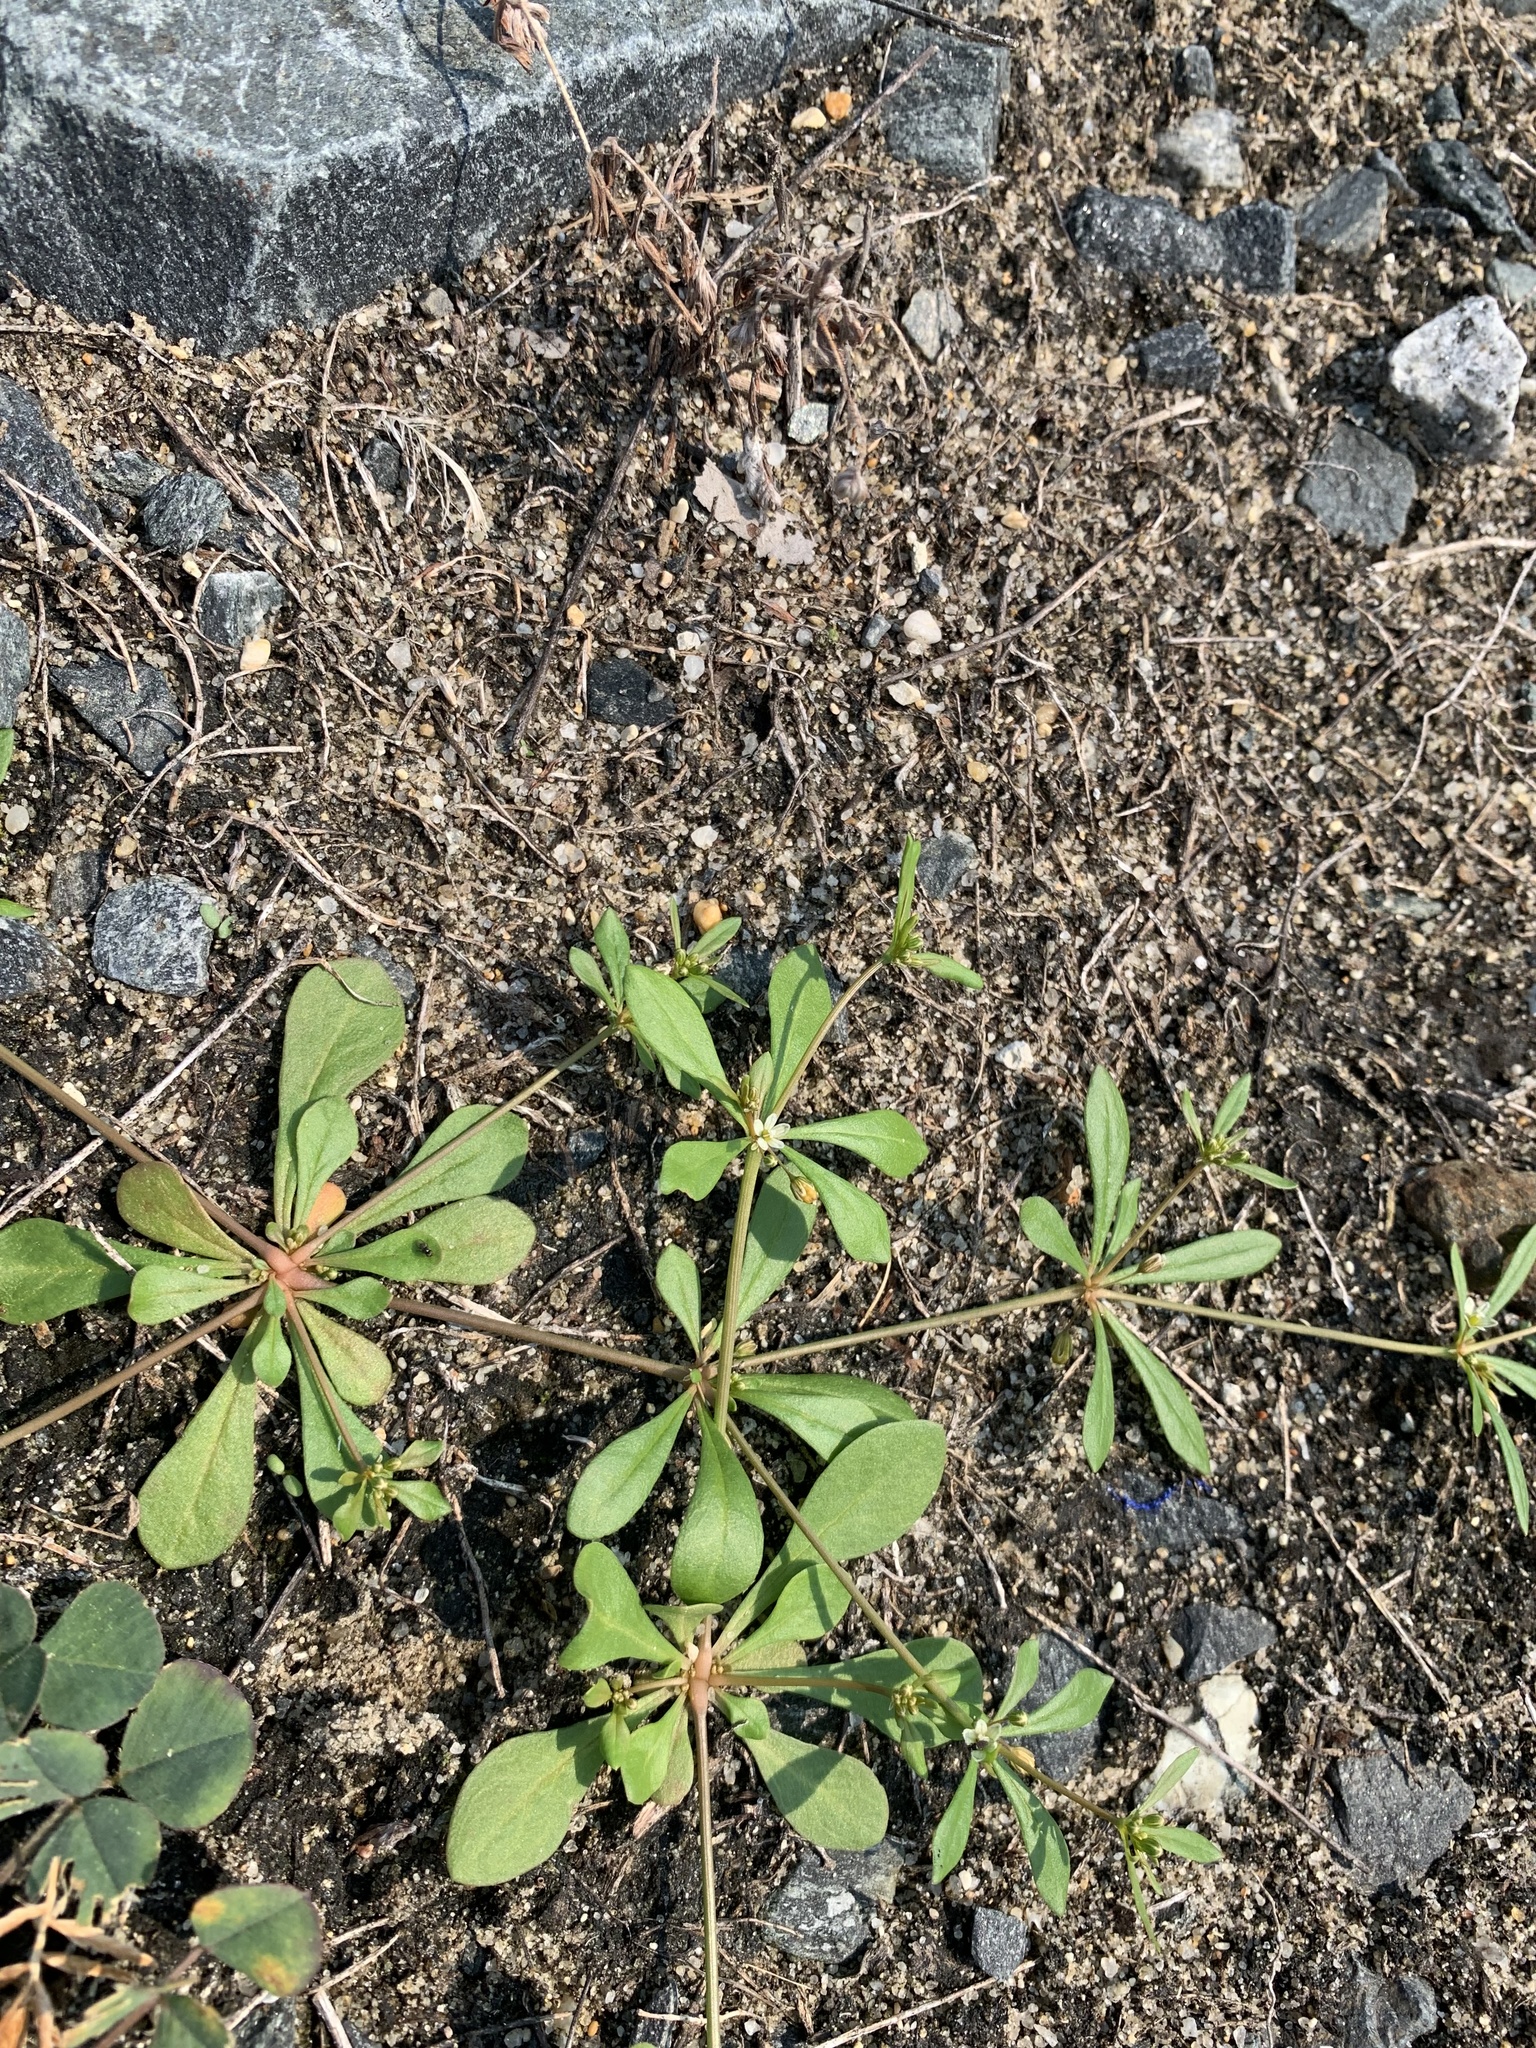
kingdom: Plantae
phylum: Tracheophyta
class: Magnoliopsida
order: Caryophyllales
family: Molluginaceae
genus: Mollugo
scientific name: Mollugo verticillata
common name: Green carpetweed
